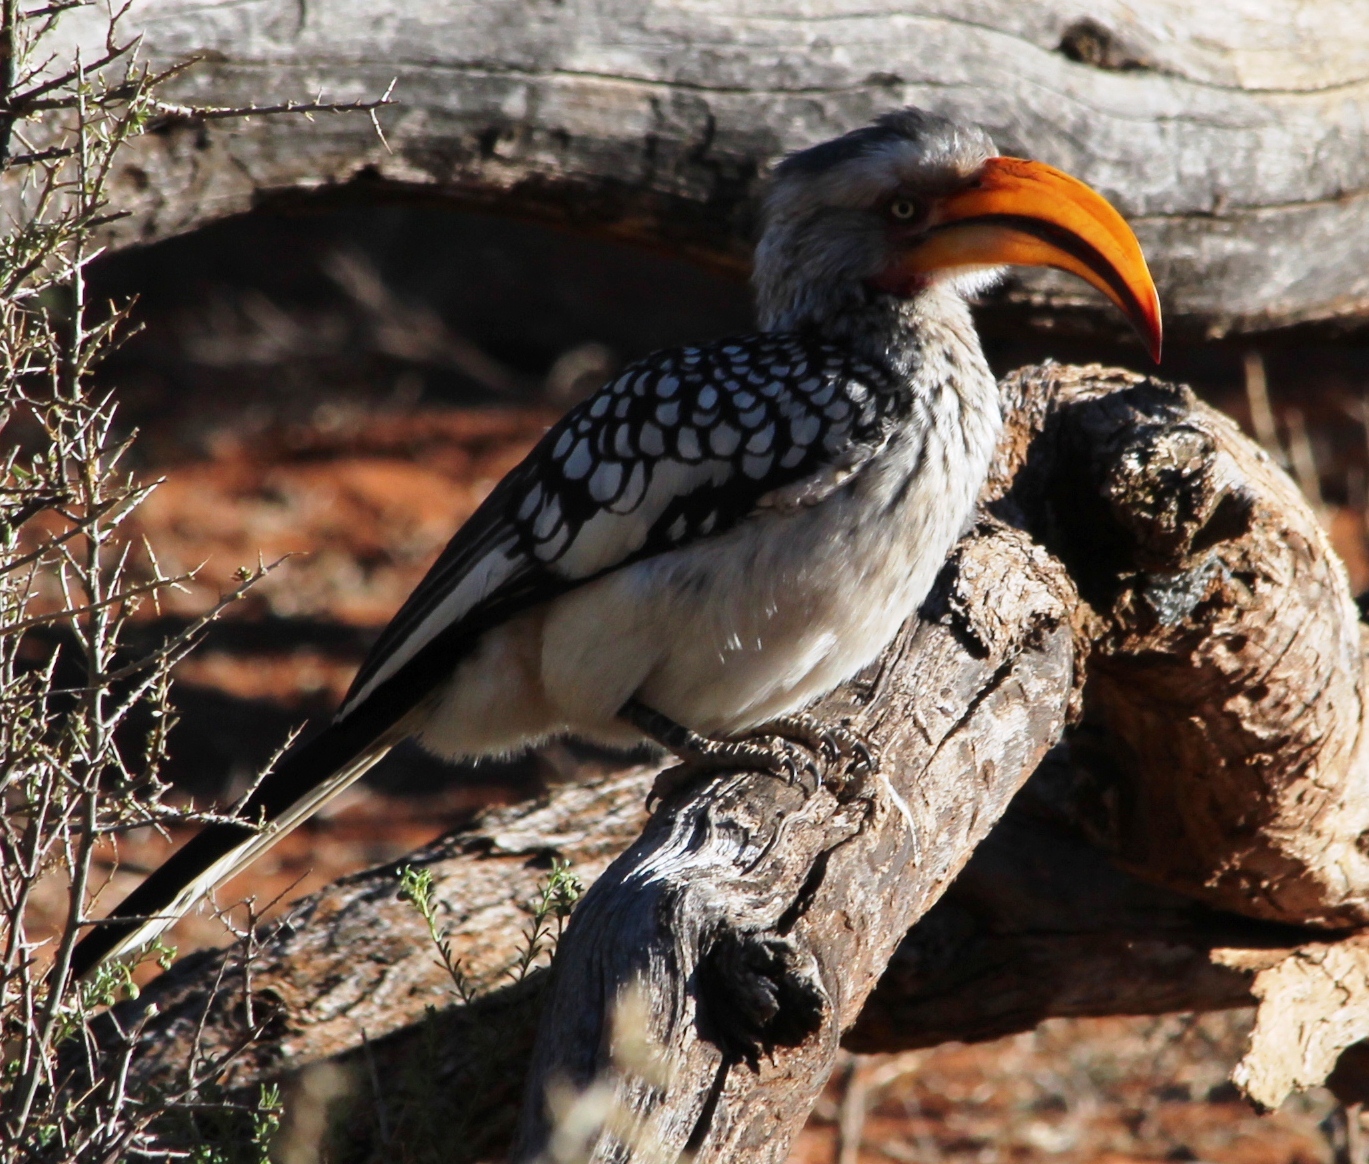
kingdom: Animalia
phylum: Chordata
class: Aves
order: Bucerotiformes
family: Bucerotidae
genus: Tockus
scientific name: Tockus leucomelas
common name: Southern yellow-billed hornbill
